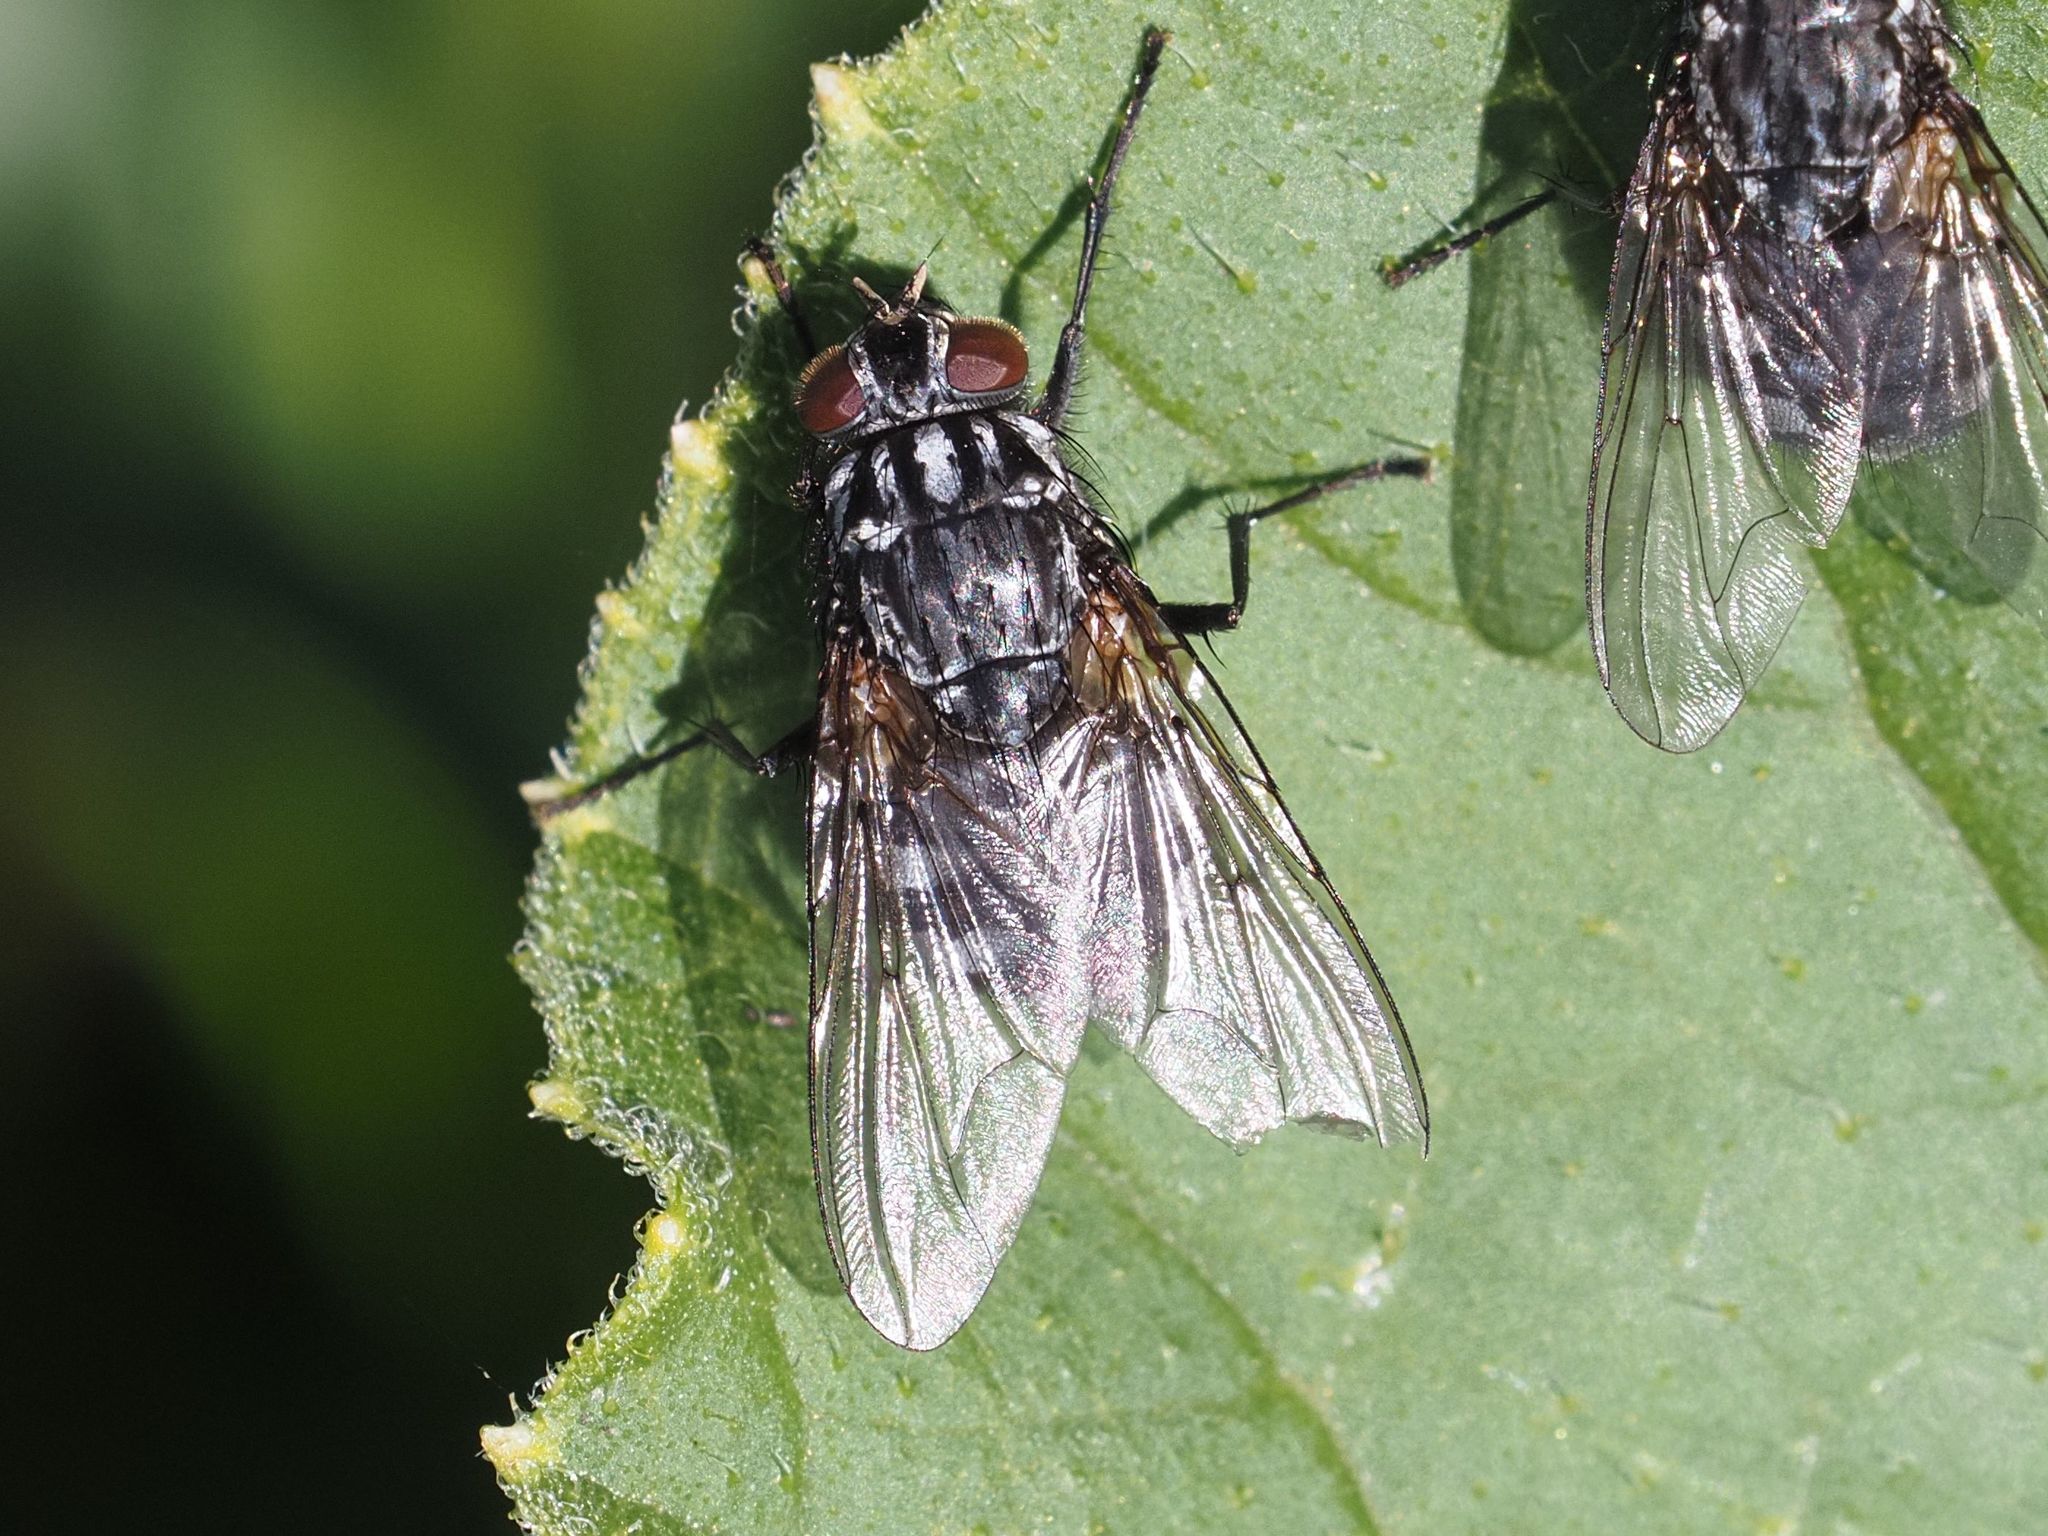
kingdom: Animalia
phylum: Arthropoda
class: Insecta
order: Diptera
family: Muscidae
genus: Polietes
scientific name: Polietes lardaria
